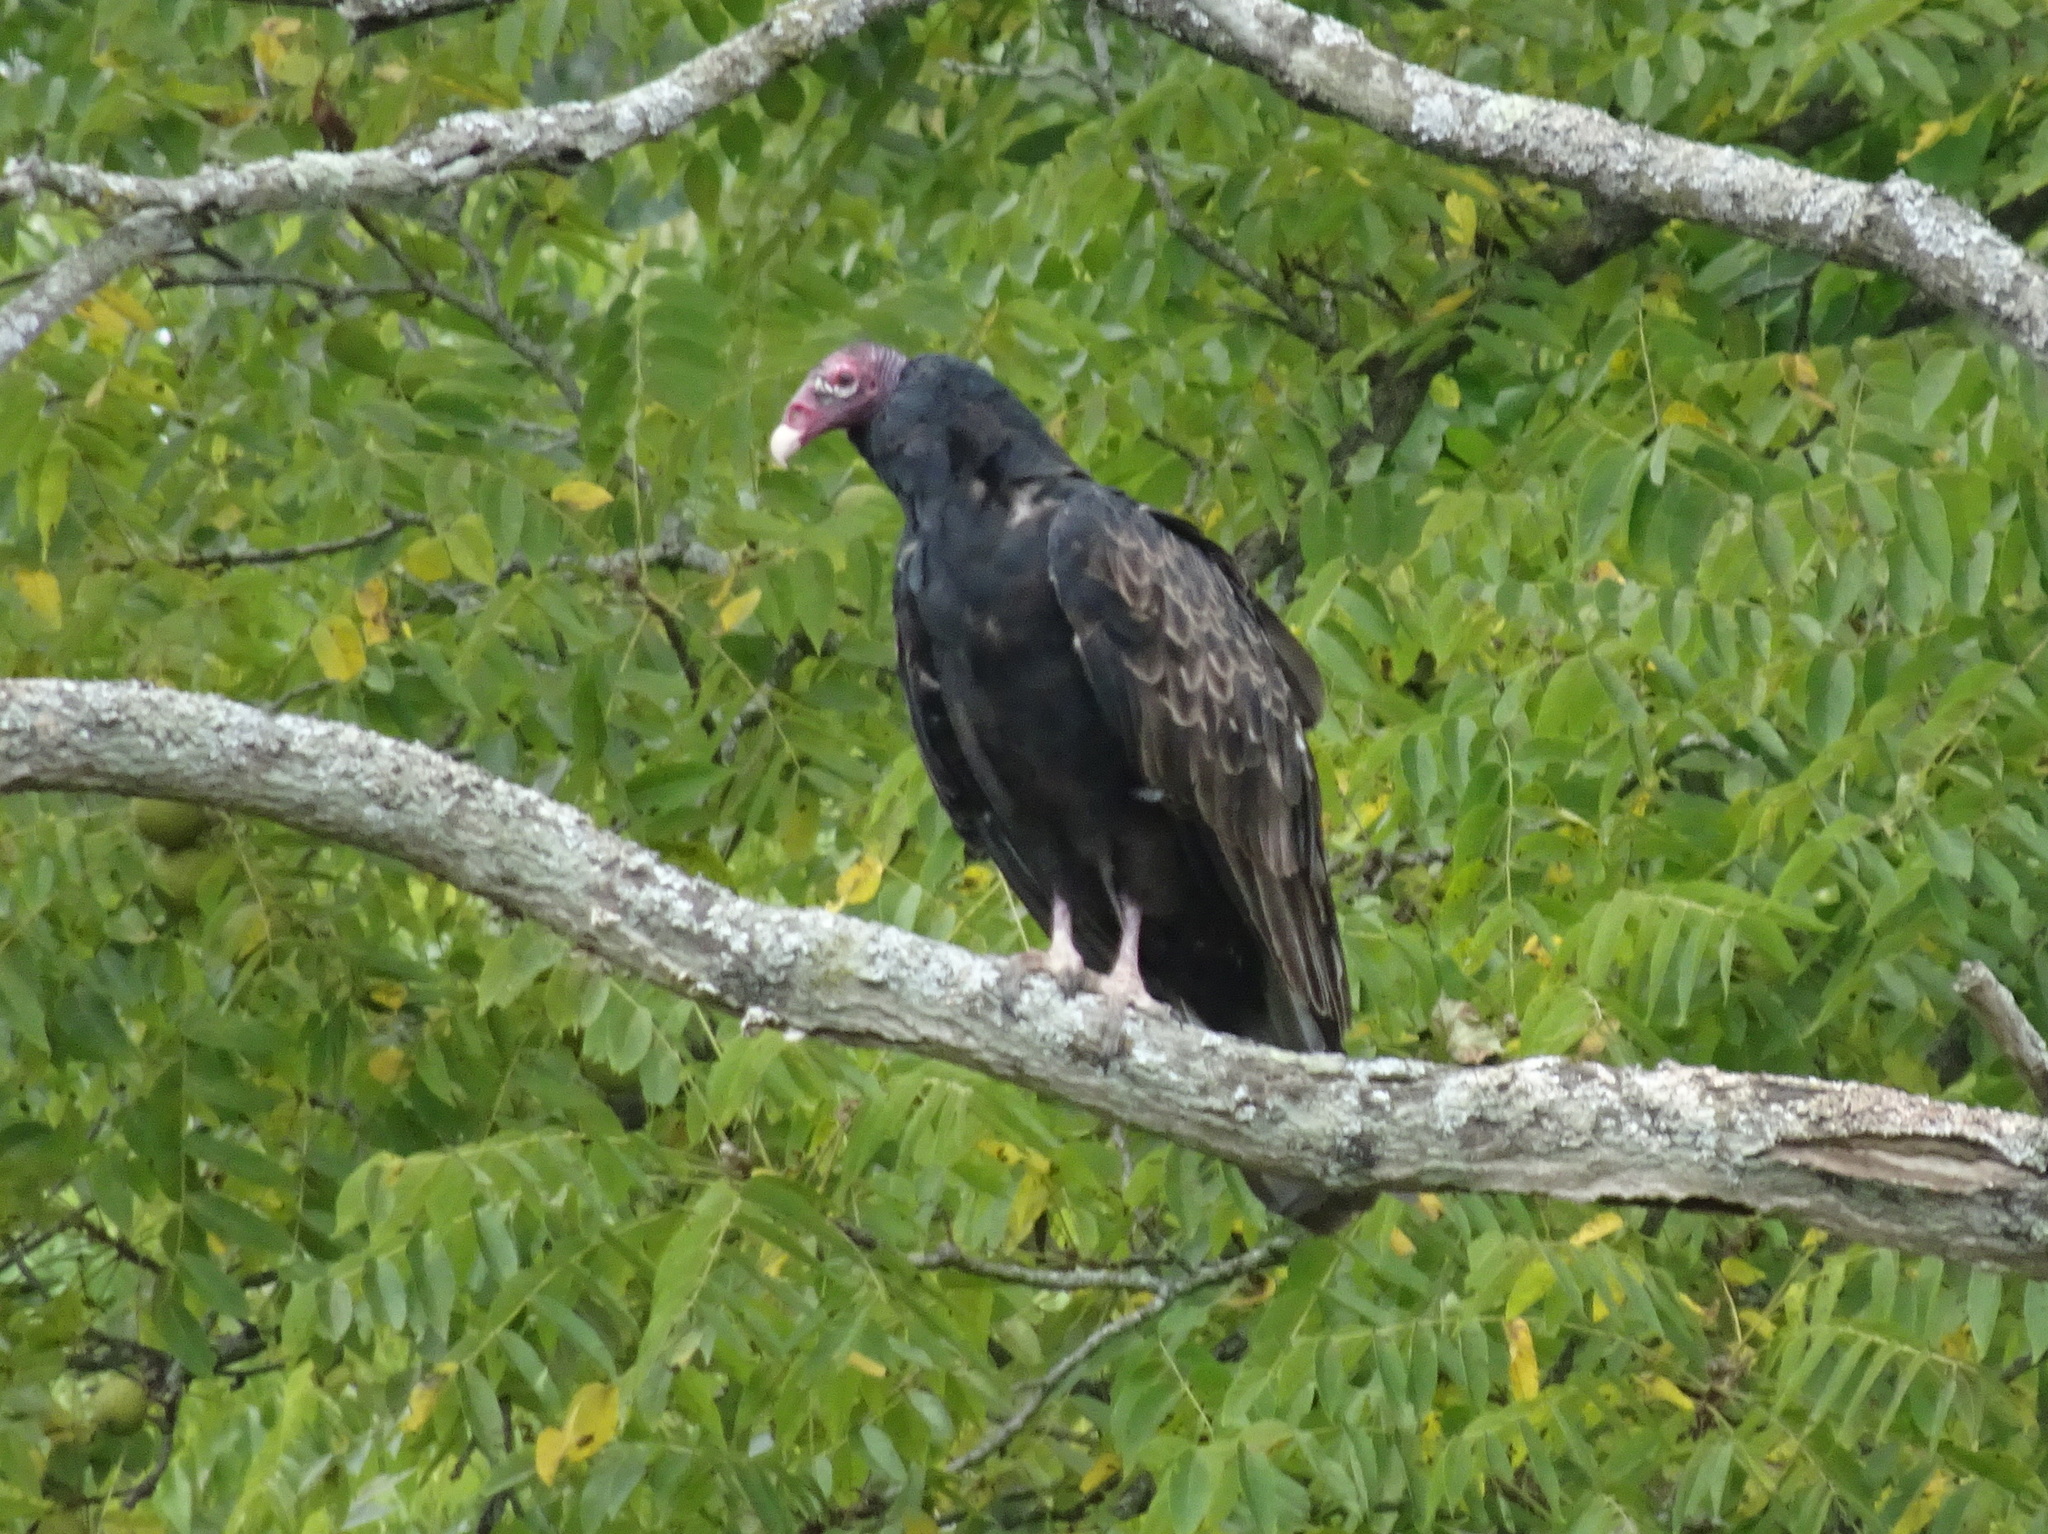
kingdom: Animalia
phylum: Chordata
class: Aves
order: Accipitriformes
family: Cathartidae
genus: Cathartes
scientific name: Cathartes aura
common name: Turkey vulture
